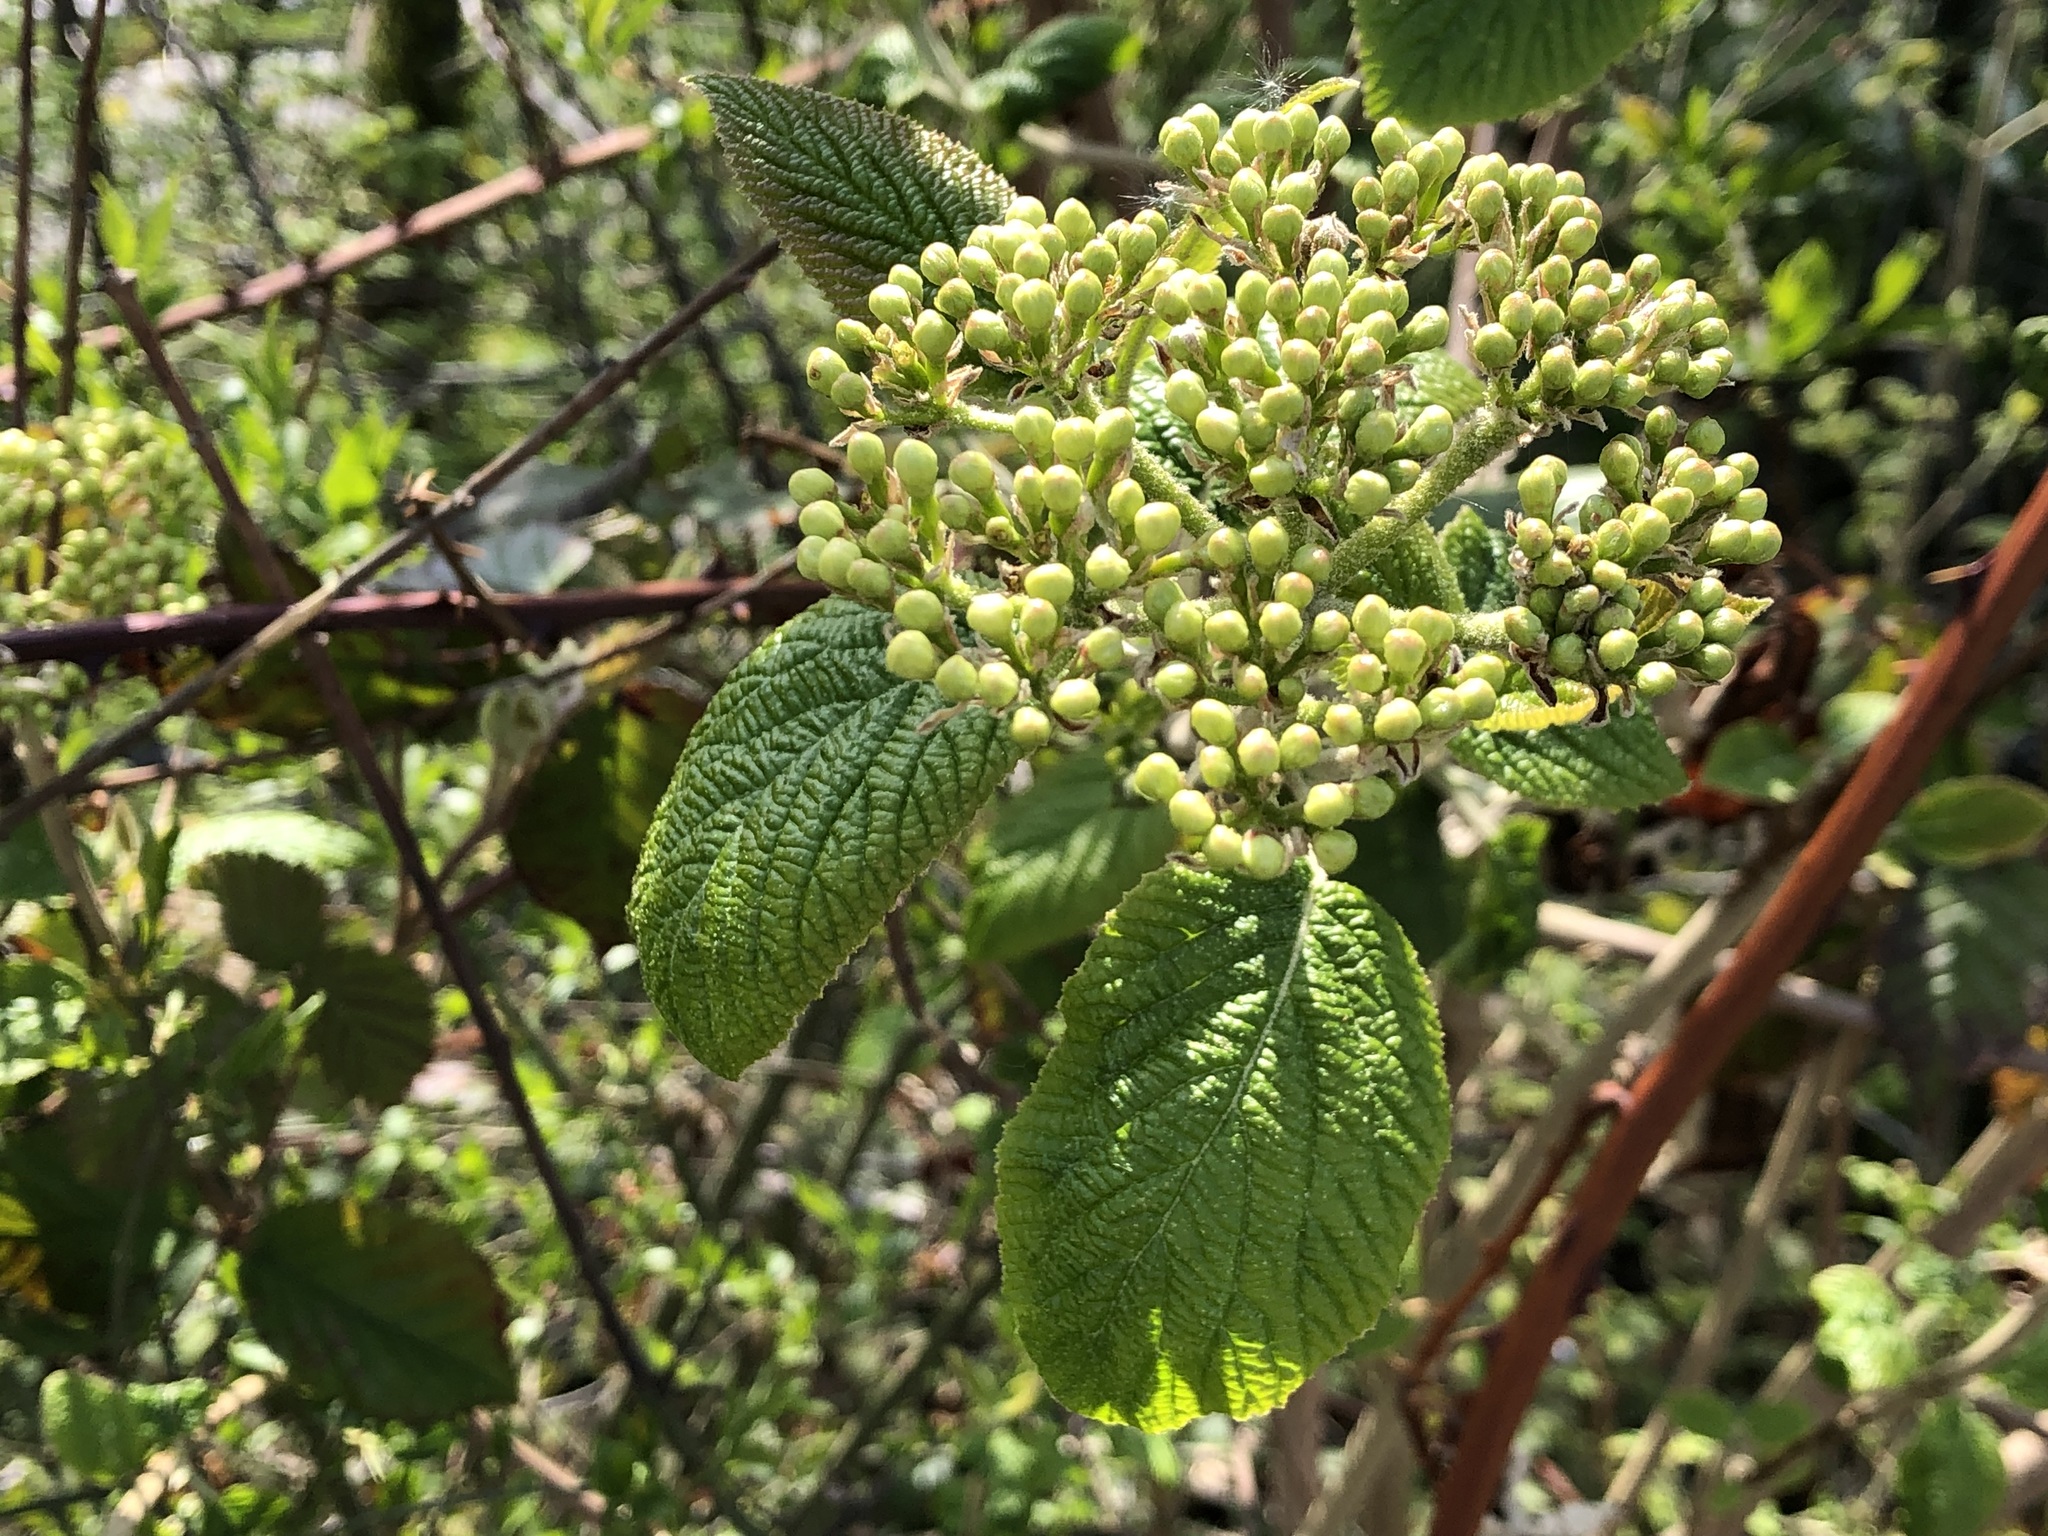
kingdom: Plantae
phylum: Tracheophyta
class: Magnoliopsida
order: Dipsacales
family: Viburnaceae
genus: Viburnum
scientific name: Viburnum lantana
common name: Wayfaring tree
